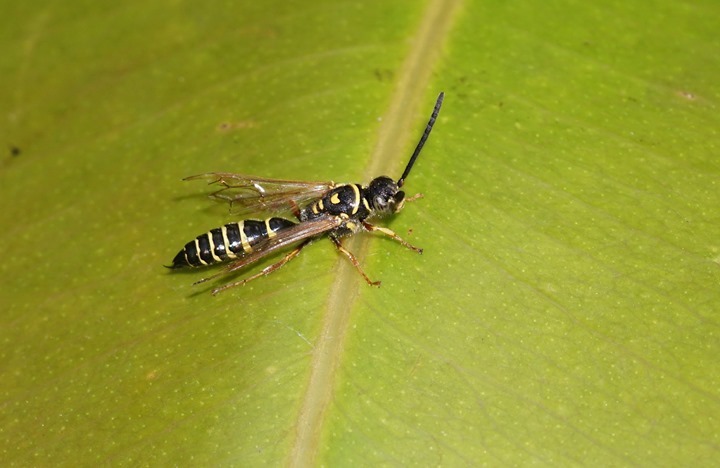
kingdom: Animalia
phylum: Arthropoda
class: Insecta
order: Hymenoptera
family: Tiphiidae
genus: Myzinum
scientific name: Myzinum
